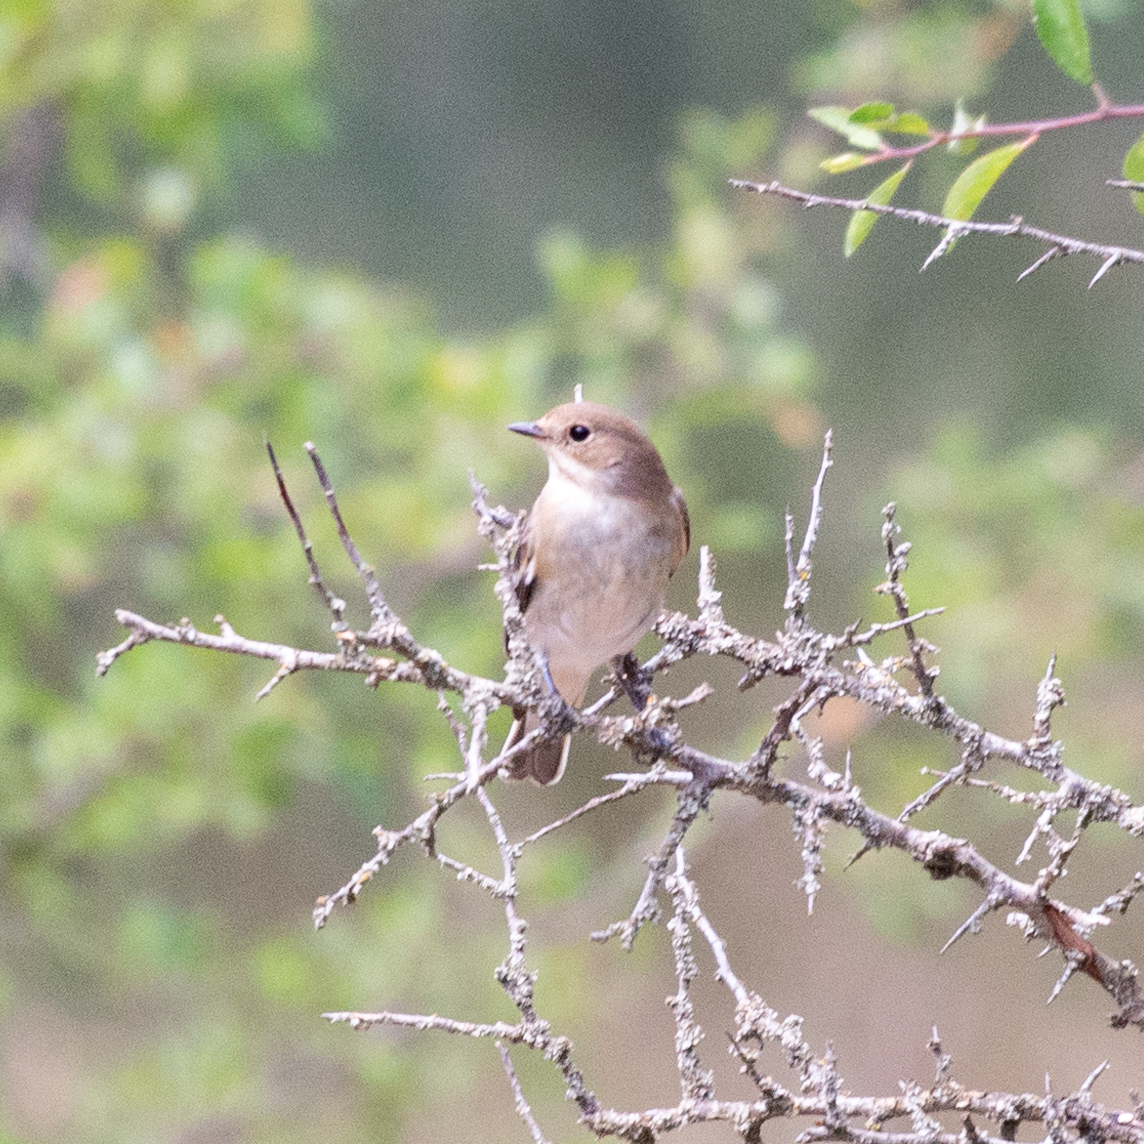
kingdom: Animalia
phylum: Chordata
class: Aves
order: Passeriformes
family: Muscicapidae
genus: Ficedula
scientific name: Ficedula hypoleuca
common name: European pied flycatcher
